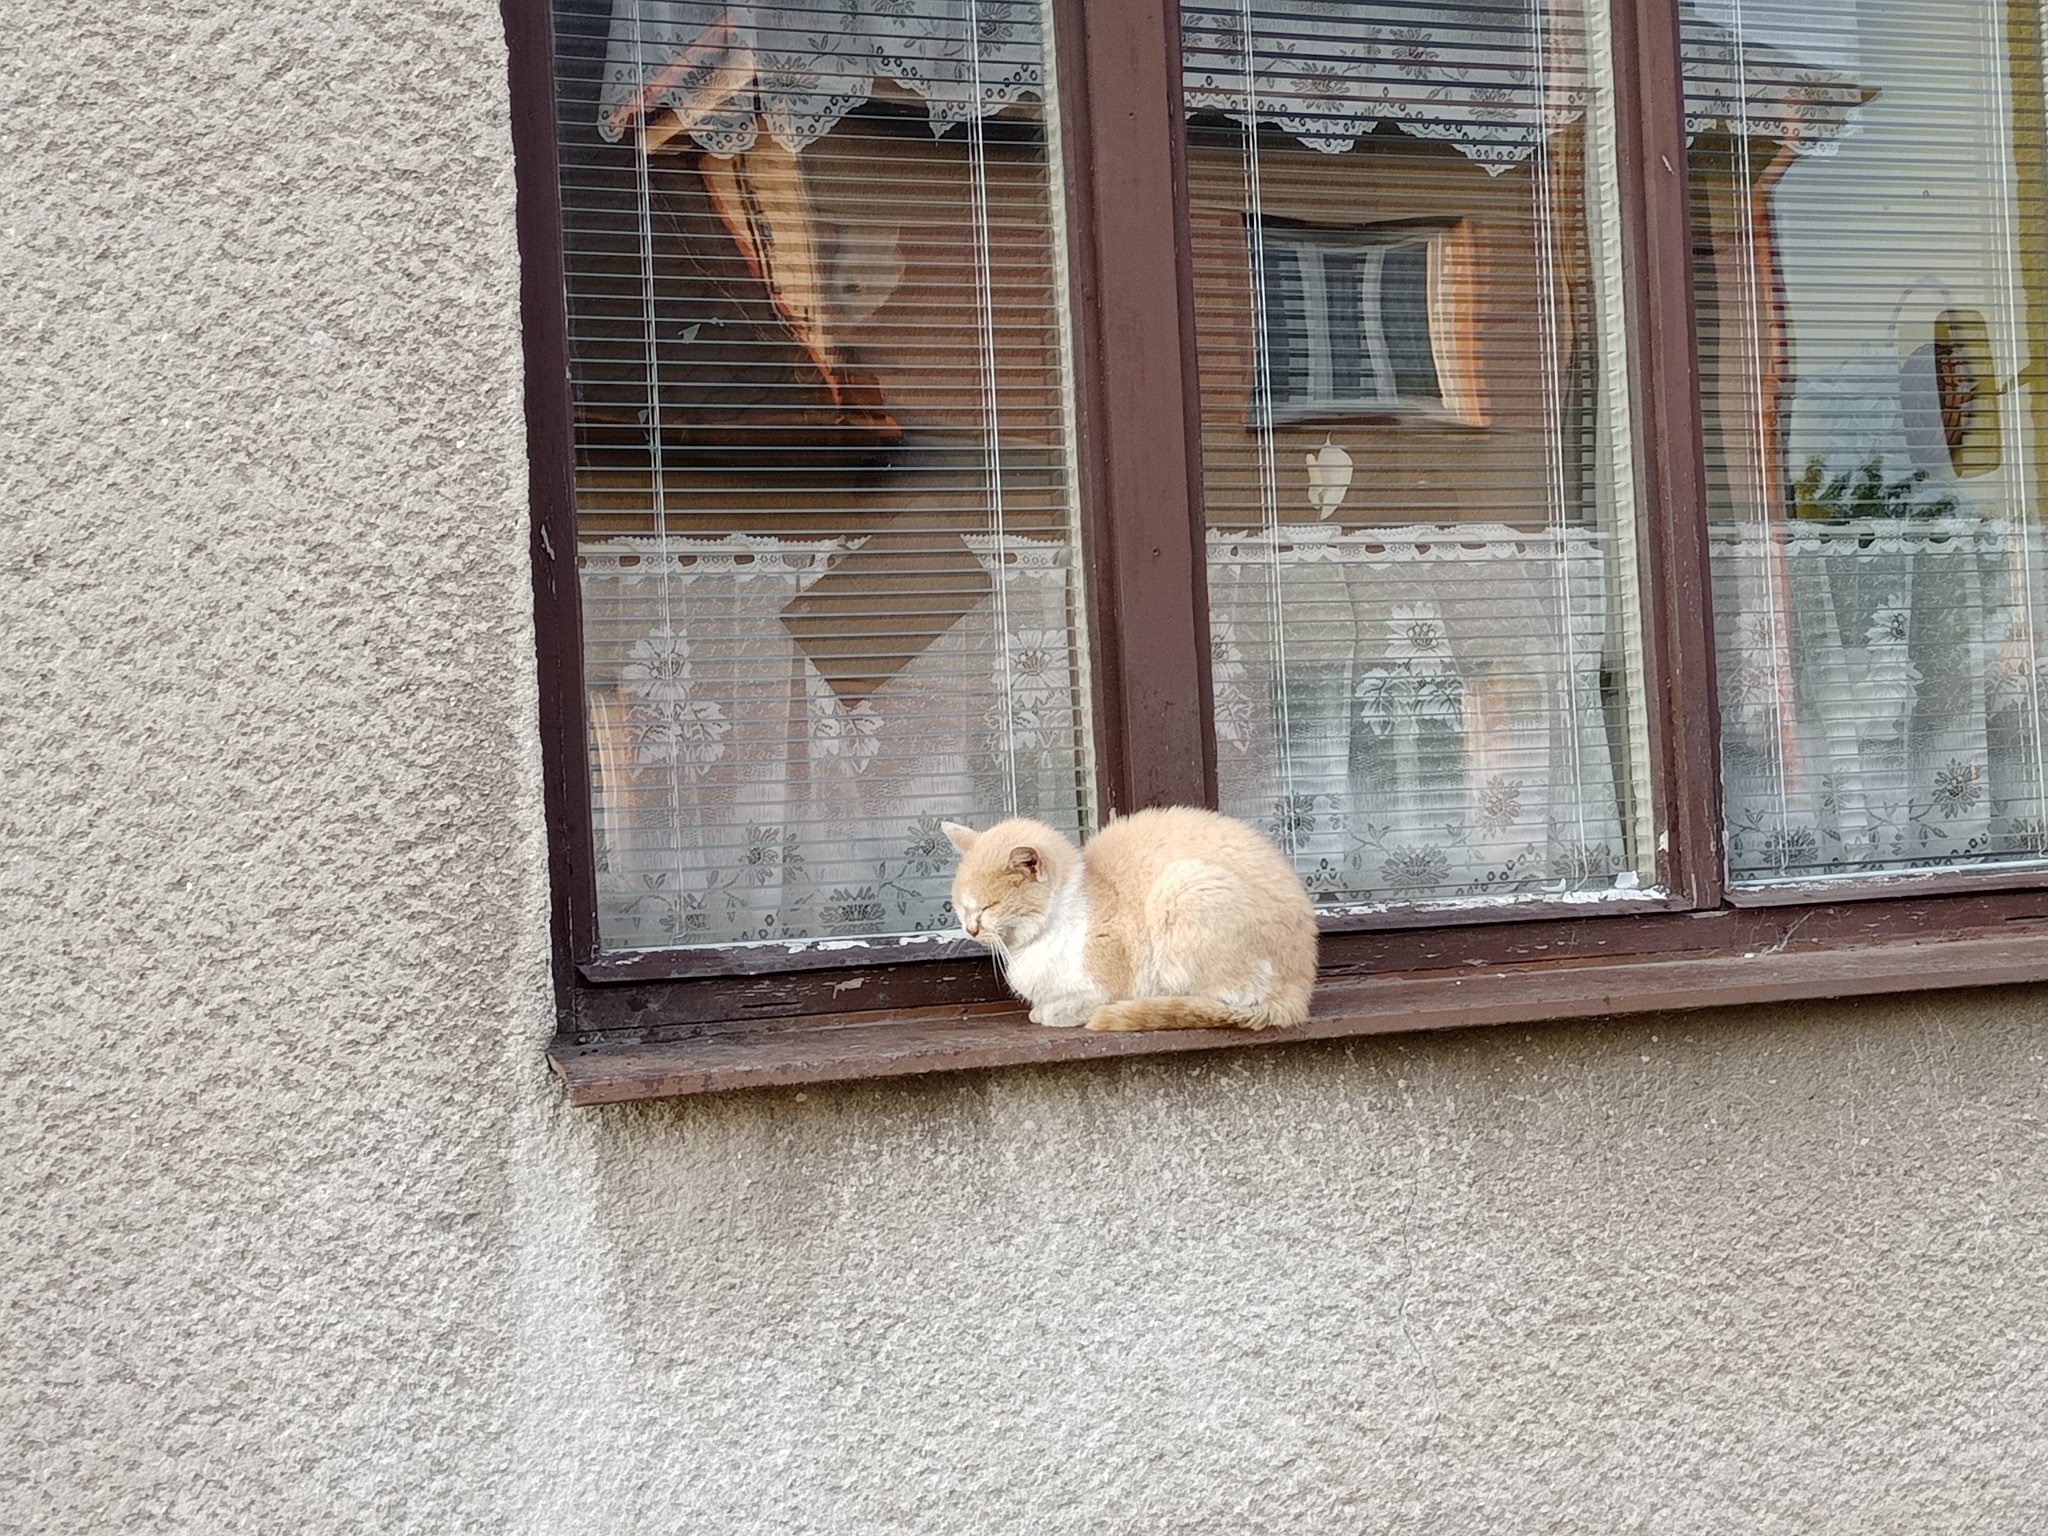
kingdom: Animalia
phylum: Chordata
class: Mammalia
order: Carnivora
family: Felidae
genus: Felis
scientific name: Felis catus
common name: Domestic cat
